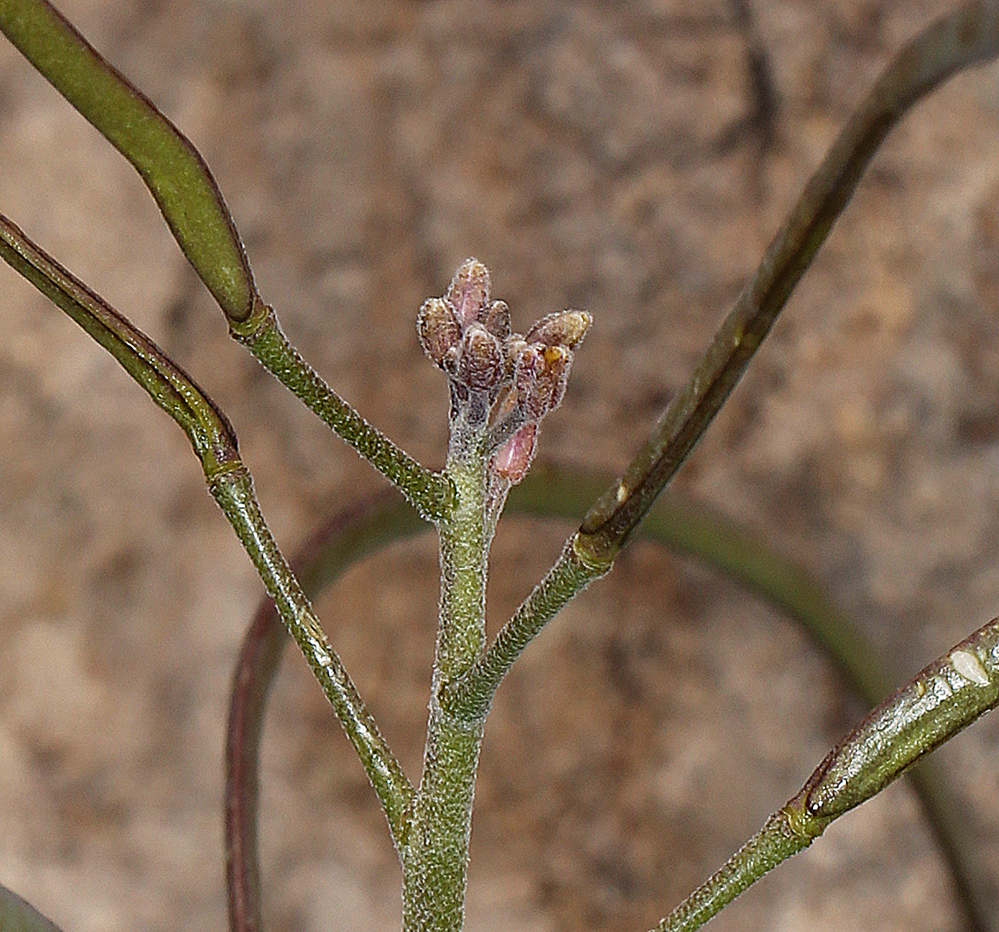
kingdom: Plantae
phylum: Tracheophyta
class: Magnoliopsida
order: Brassicales
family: Brassicaceae
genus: Boechera
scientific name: Boechera shockleyi
